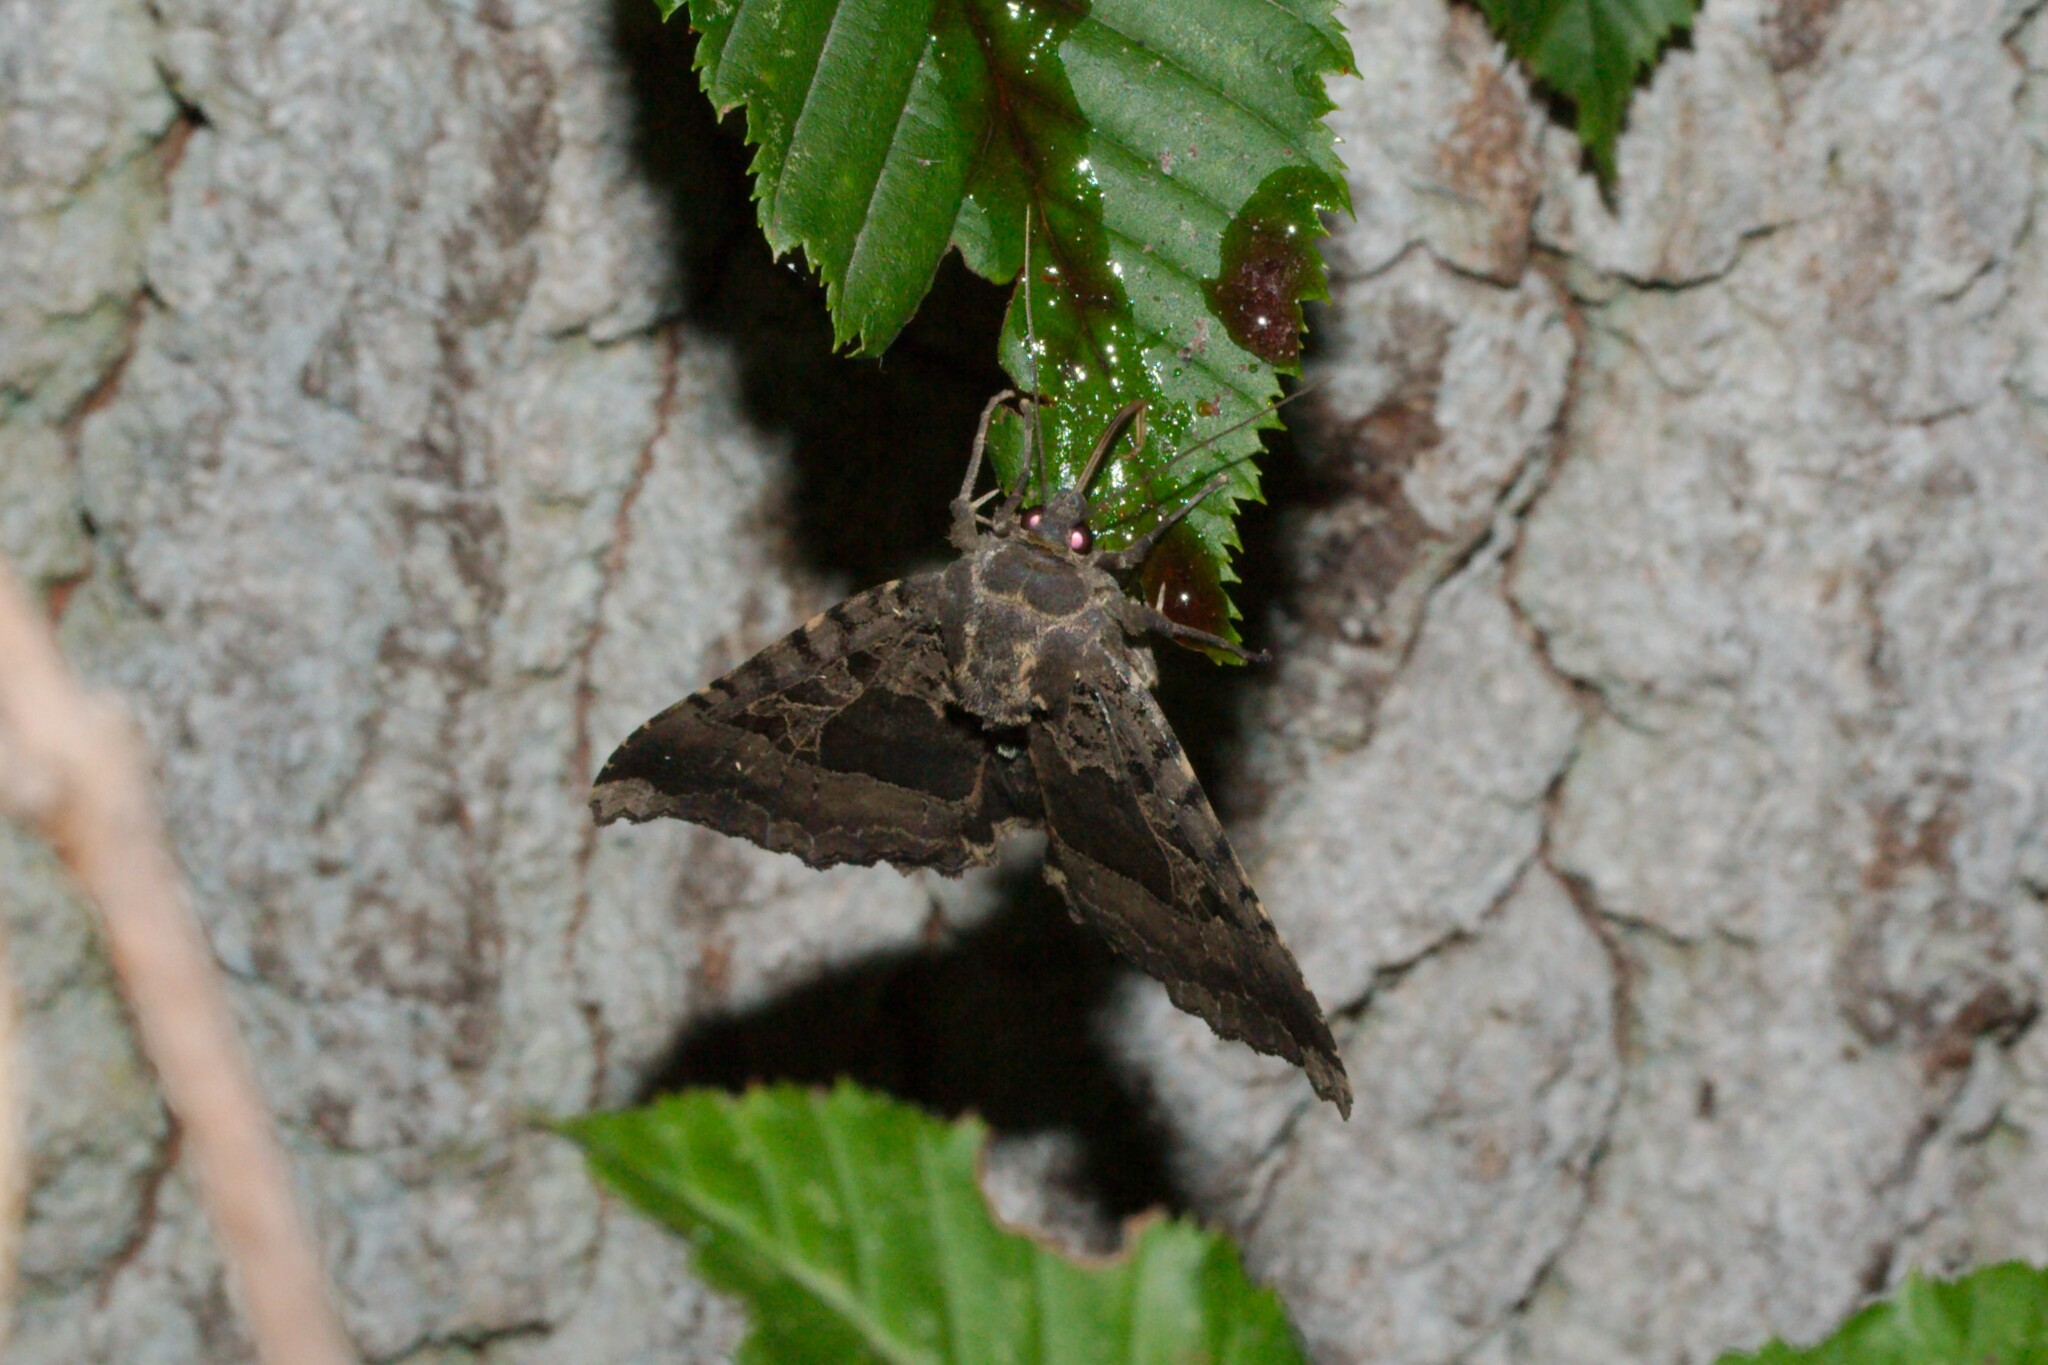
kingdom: Animalia
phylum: Arthropoda
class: Insecta
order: Lepidoptera
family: Noctuidae
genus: Mormo
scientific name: Mormo maura
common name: Old lady
